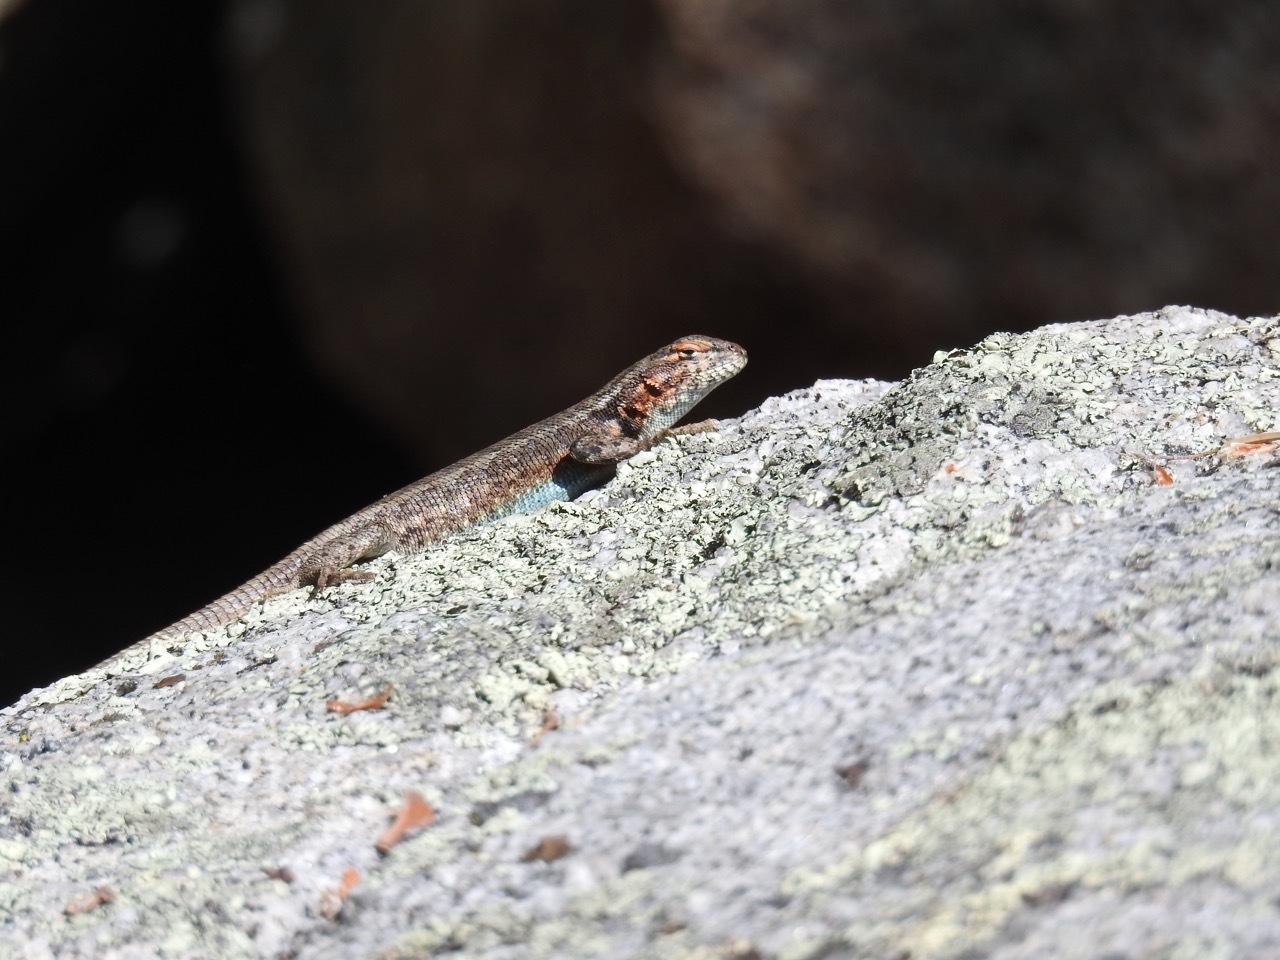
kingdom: Animalia
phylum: Chordata
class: Squamata
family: Phrynosomatidae
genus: Sceloporus
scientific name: Sceloporus graciosus
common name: Sagebrush lizard
